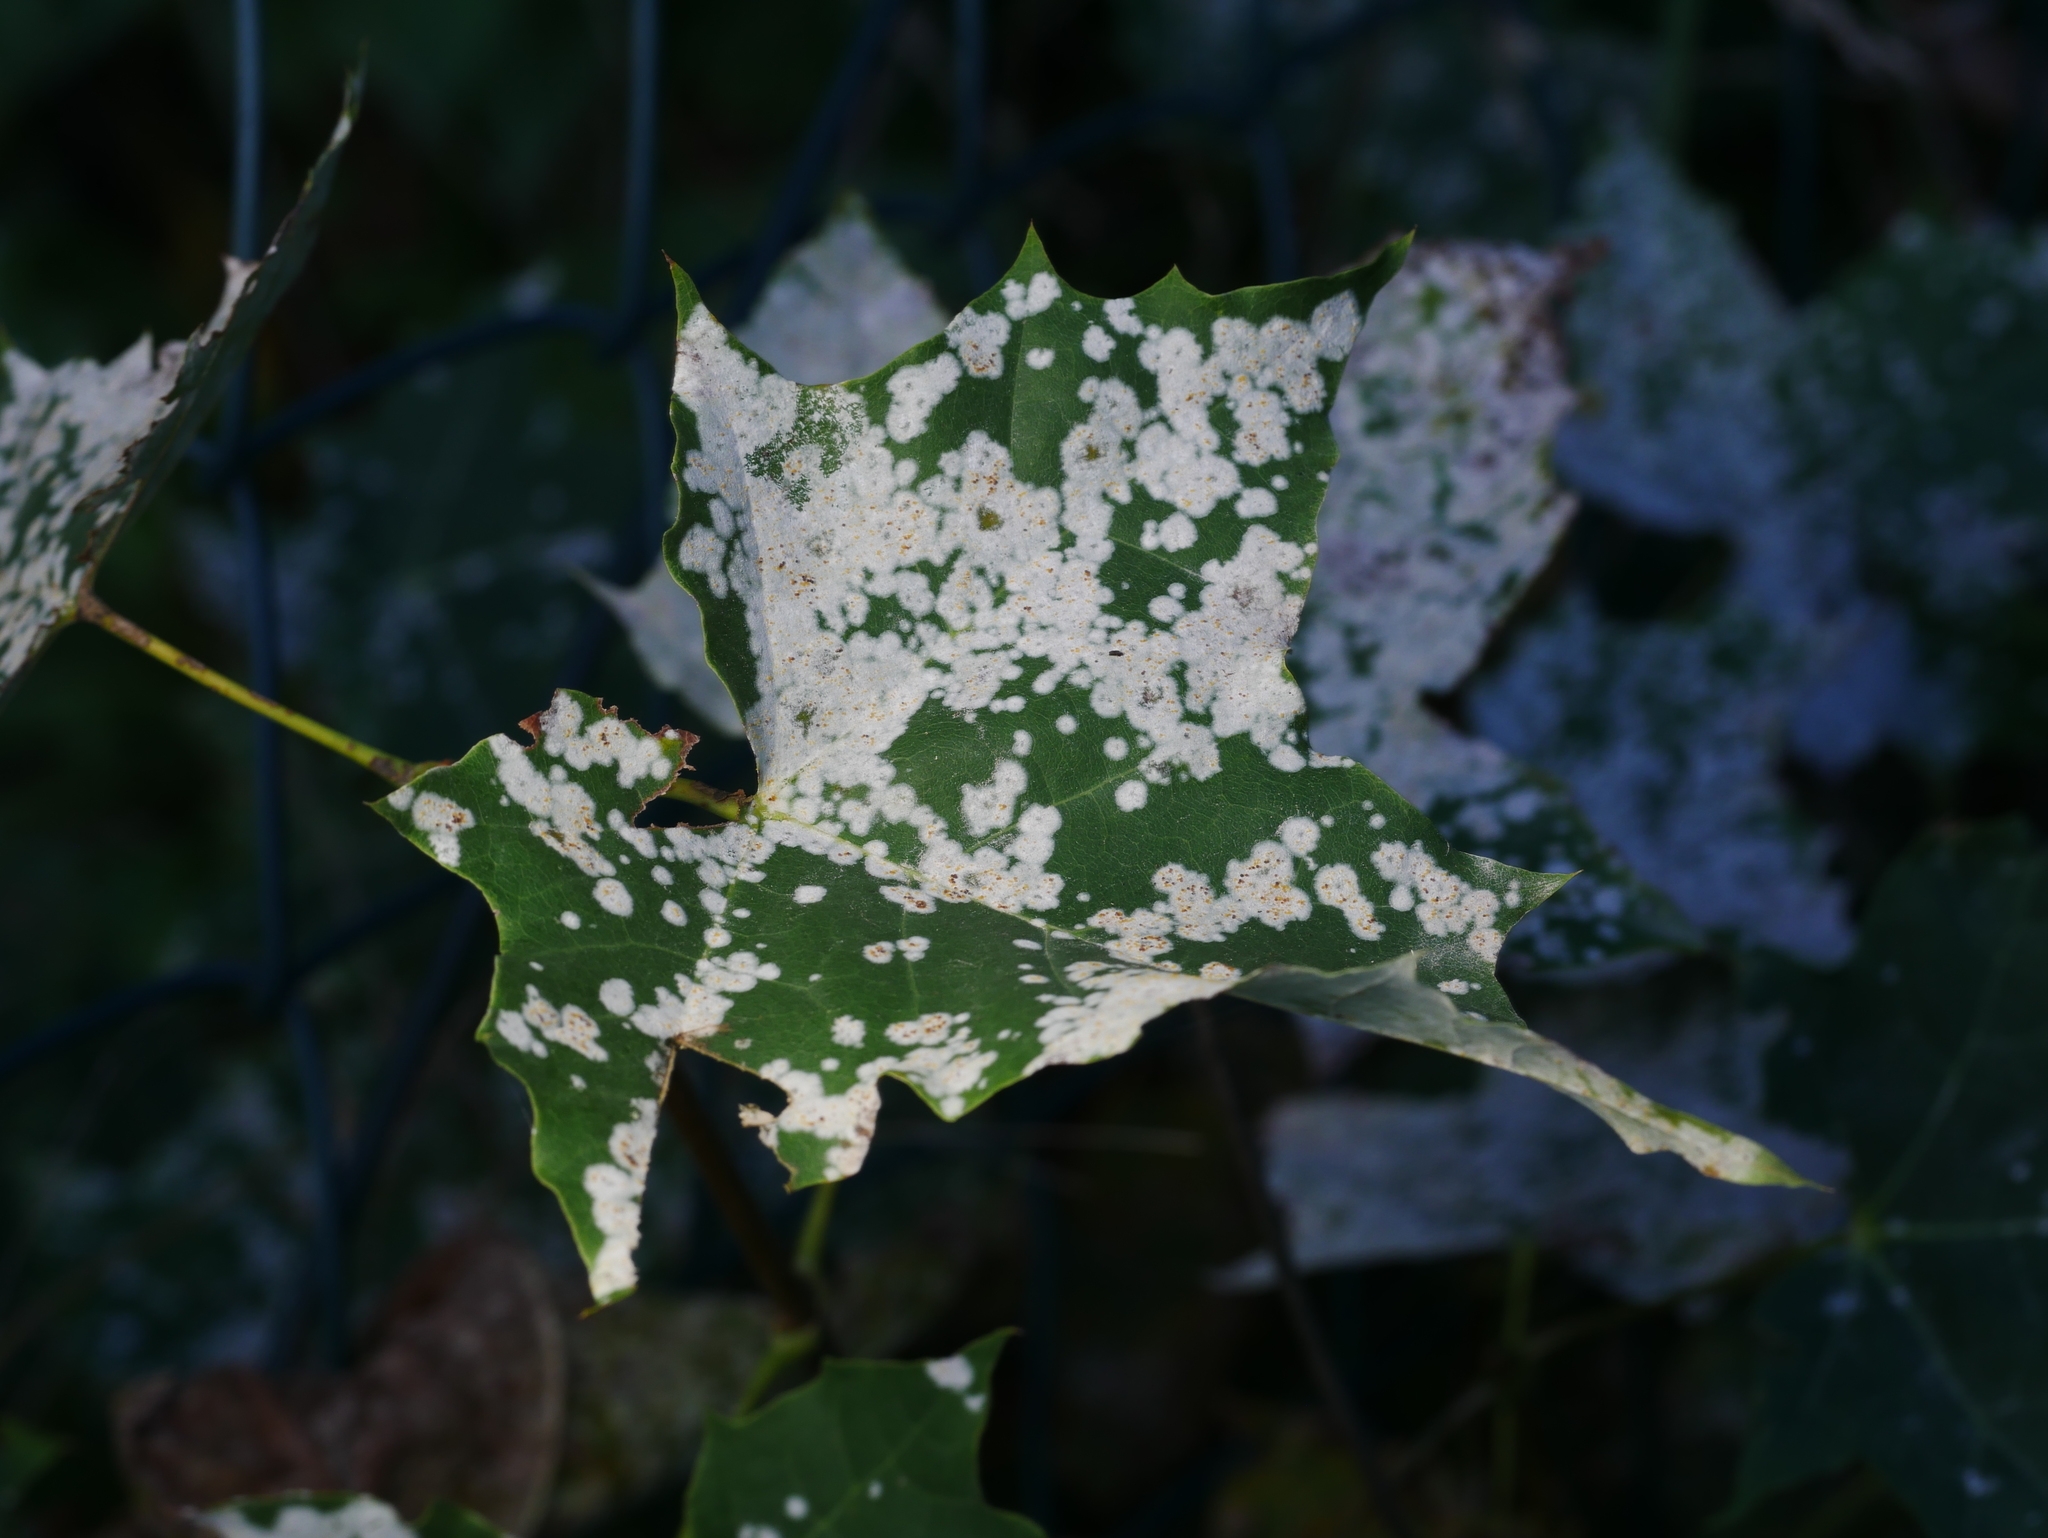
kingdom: Fungi
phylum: Ascomycota
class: Leotiomycetes
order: Helotiales
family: Erysiphaceae
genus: Sawadaea
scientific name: Sawadaea tulasnei
